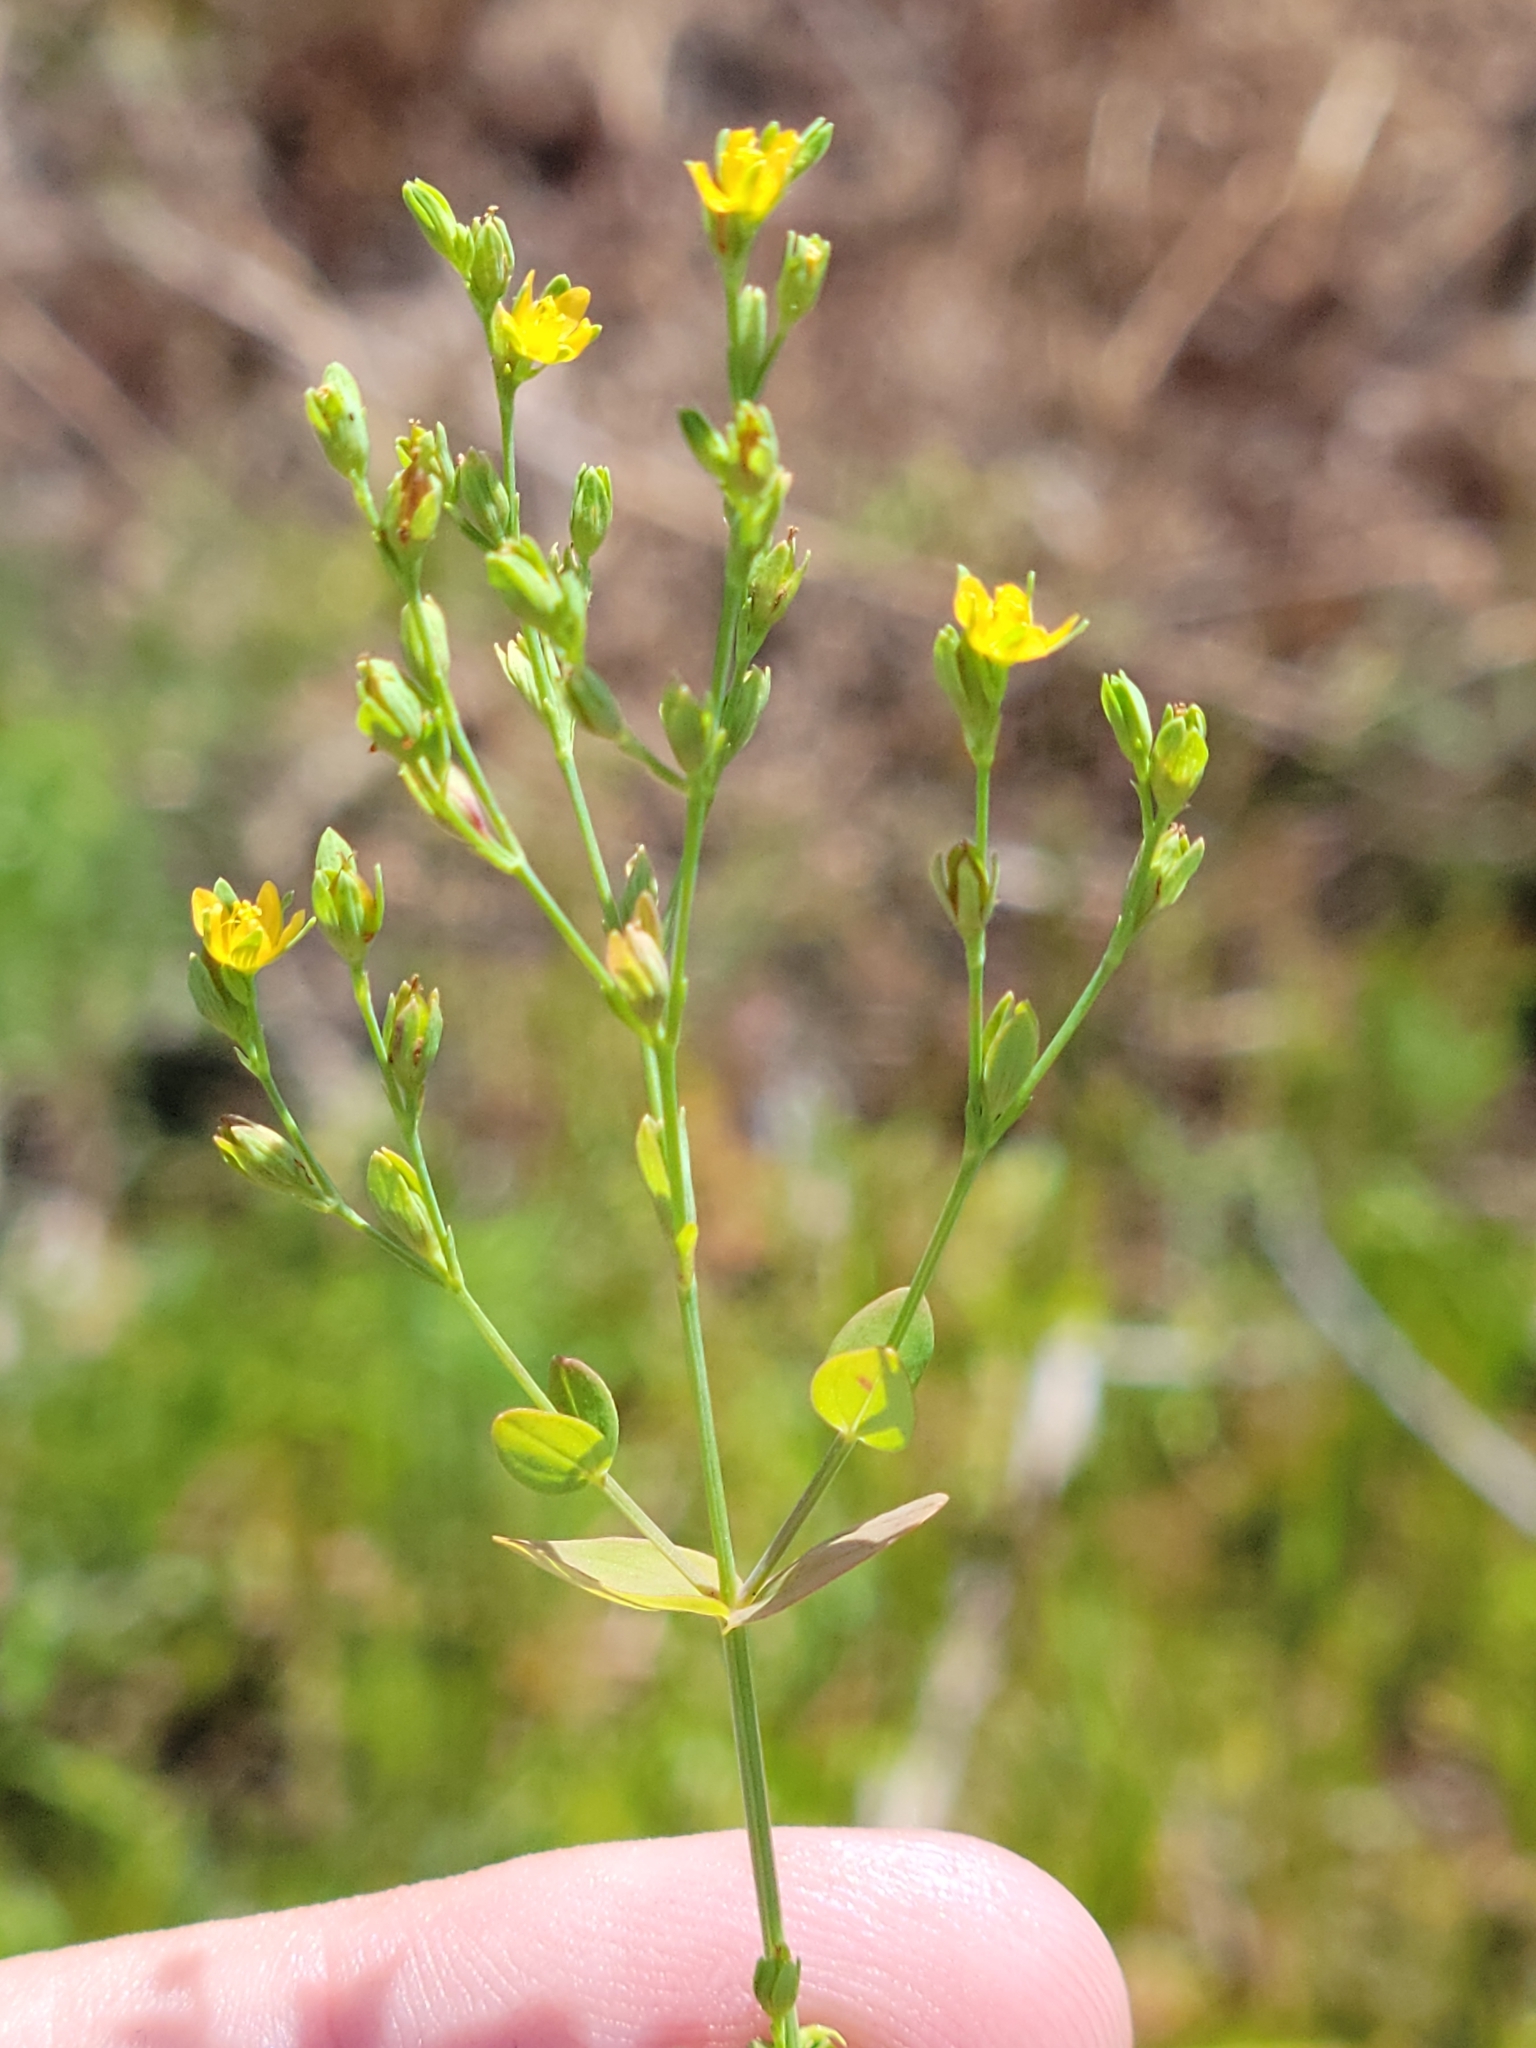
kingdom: Plantae
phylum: Tracheophyta
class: Magnoliopsida
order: Malpighiales
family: Hypericaceae
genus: Hypericum
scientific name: Hypericum mutilum
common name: Dwarf st. john's-wort
